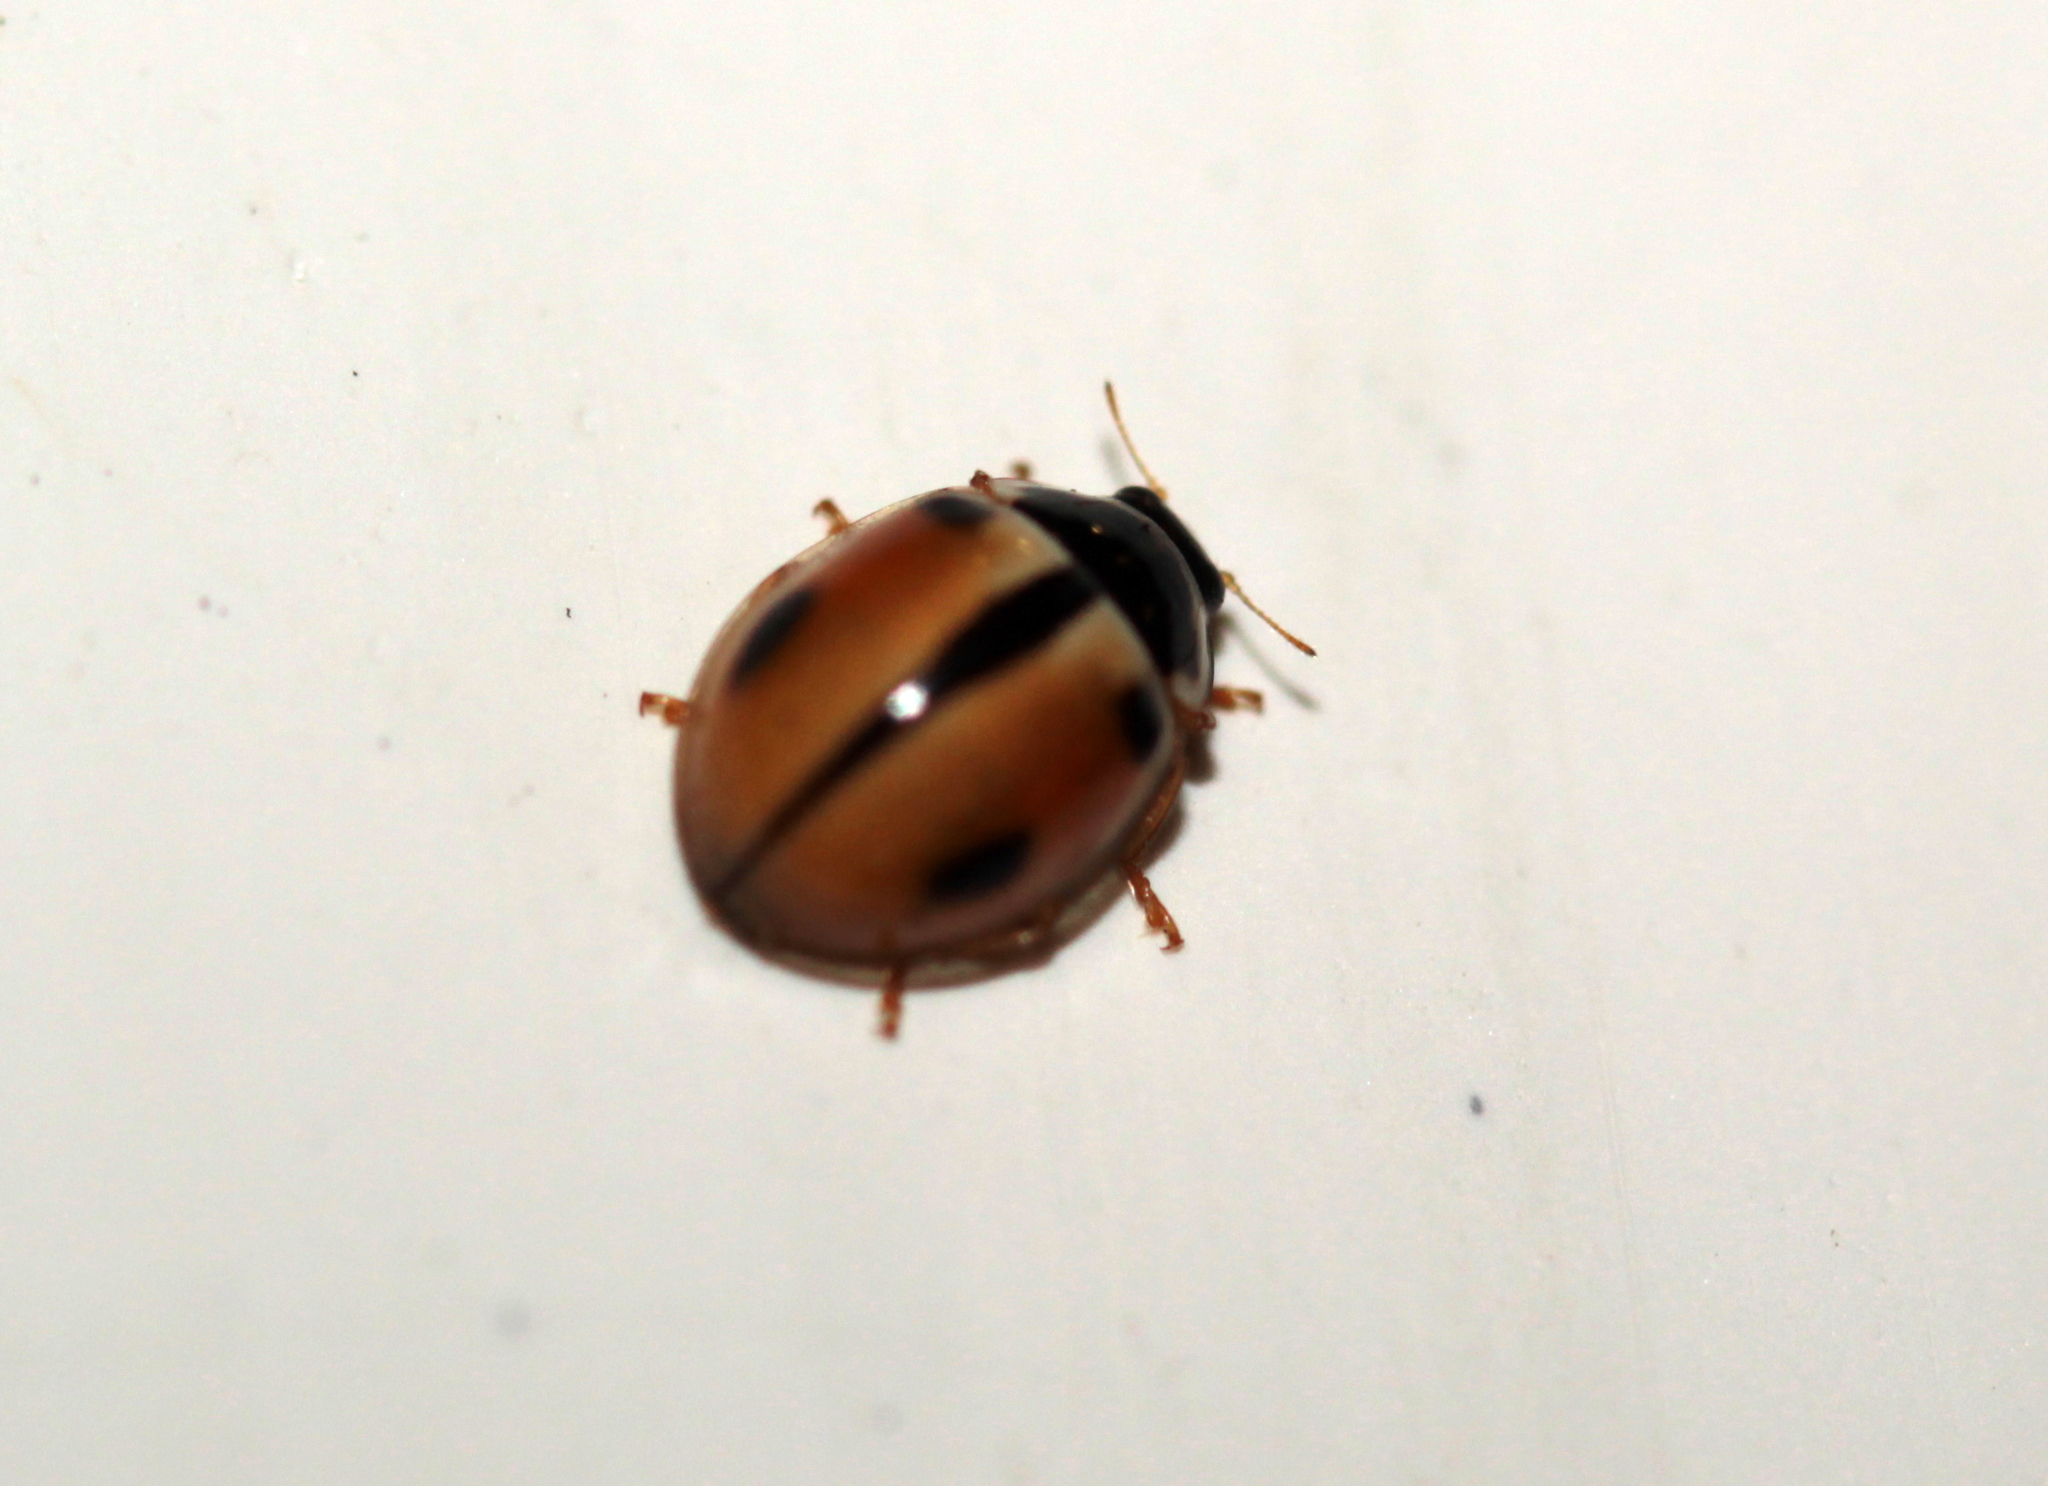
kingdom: Animalia
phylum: Arthropoda
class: Insecta
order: Coleoptera
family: Coccinellidae
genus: Propylea
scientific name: Propylea japonica
